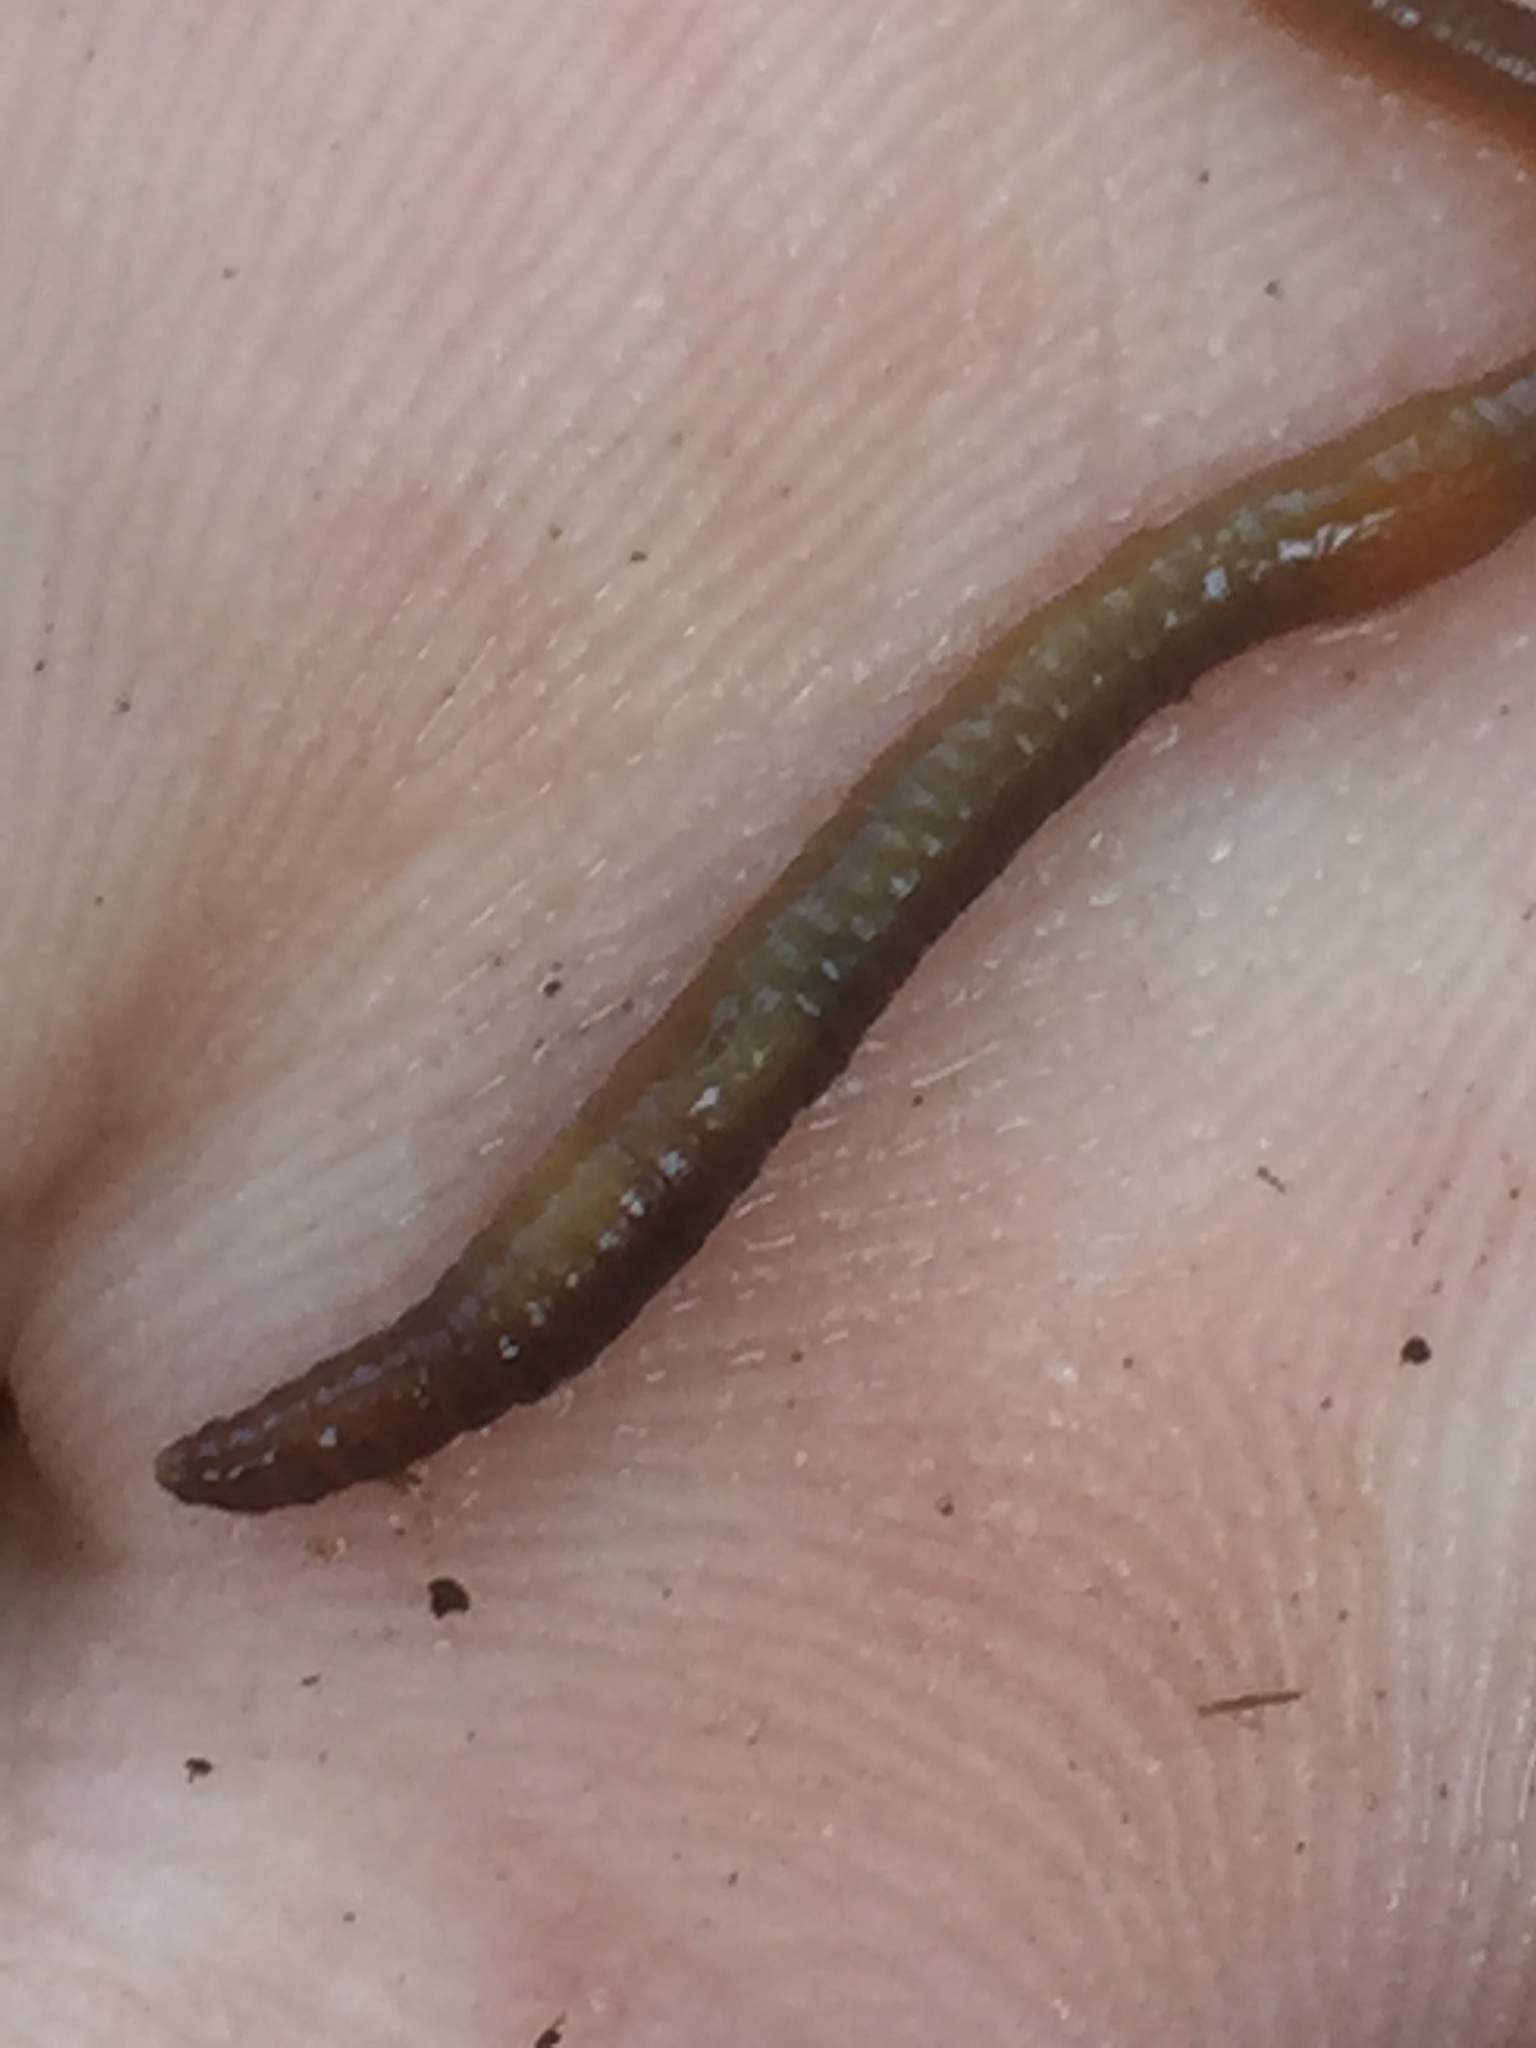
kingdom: Animalia
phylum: Annelida
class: Clitellata
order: Crassiclitellata
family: Lumbricidae
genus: Eiseniella
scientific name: Eiseniella tetraedra
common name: Square-tailed worm
